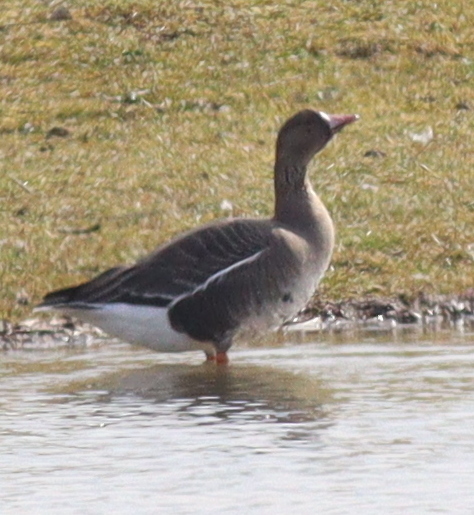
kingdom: Animalia
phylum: Chordata
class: Aves
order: Anseriformes
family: Anatidae
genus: Anser
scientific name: Anser albifrons
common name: Greater white-fronted goose
